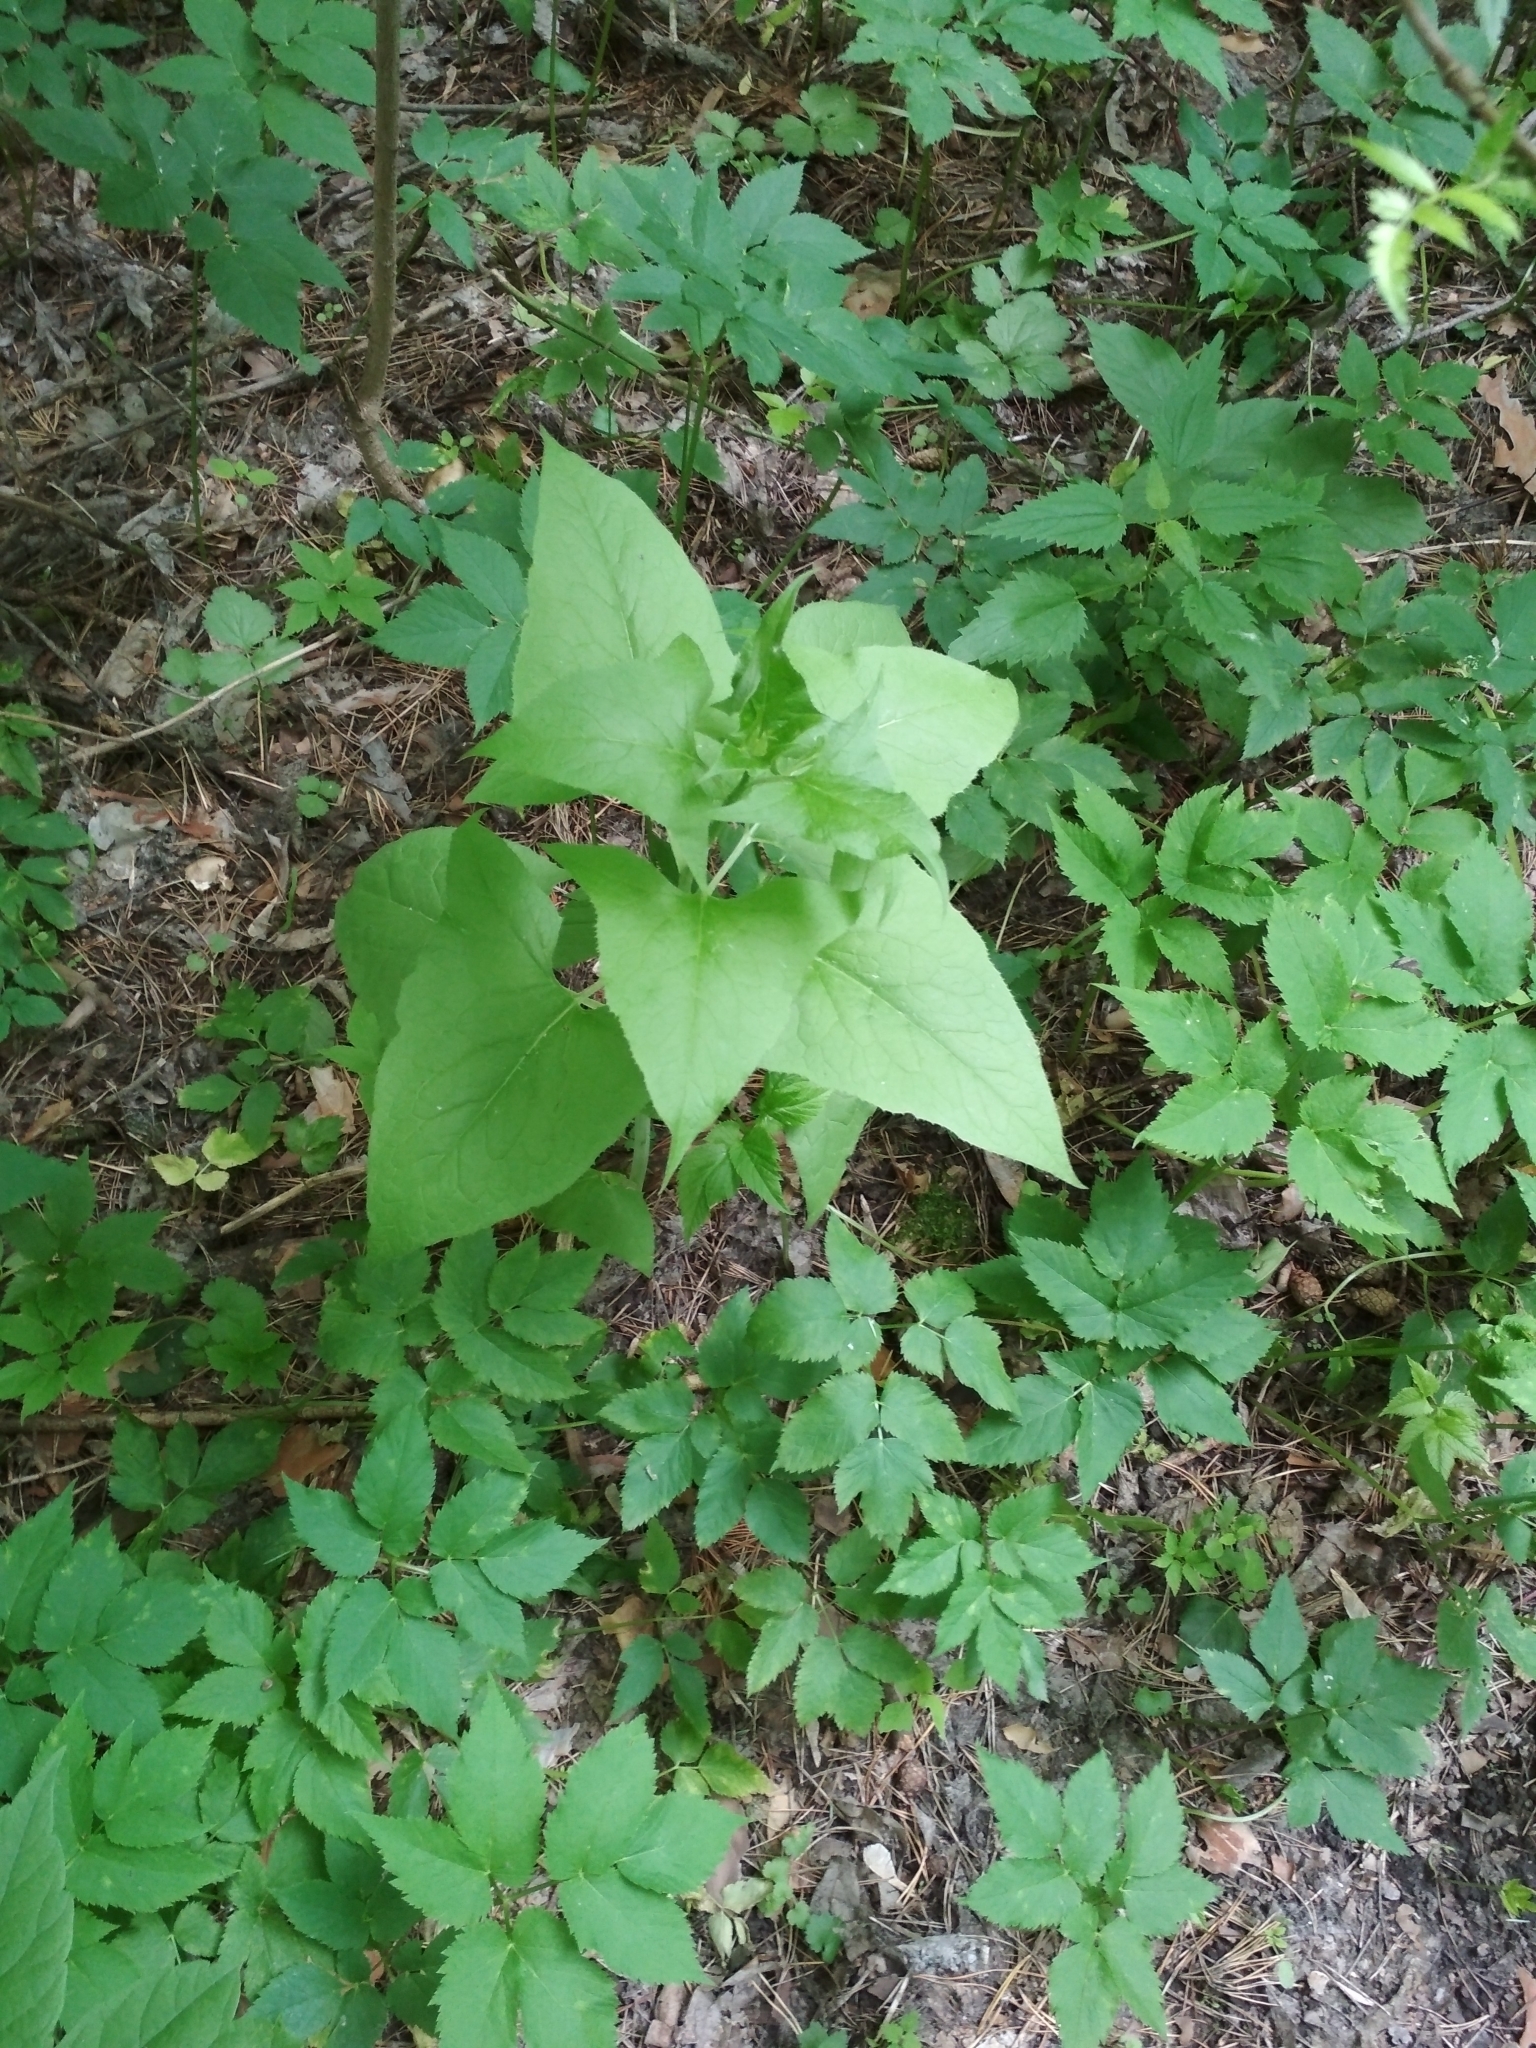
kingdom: Plantae
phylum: Tracheophyta
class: Magnoliopsida
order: Asterales
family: Asteraceae
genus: Parasenecio
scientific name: Parasenecio hastatus
